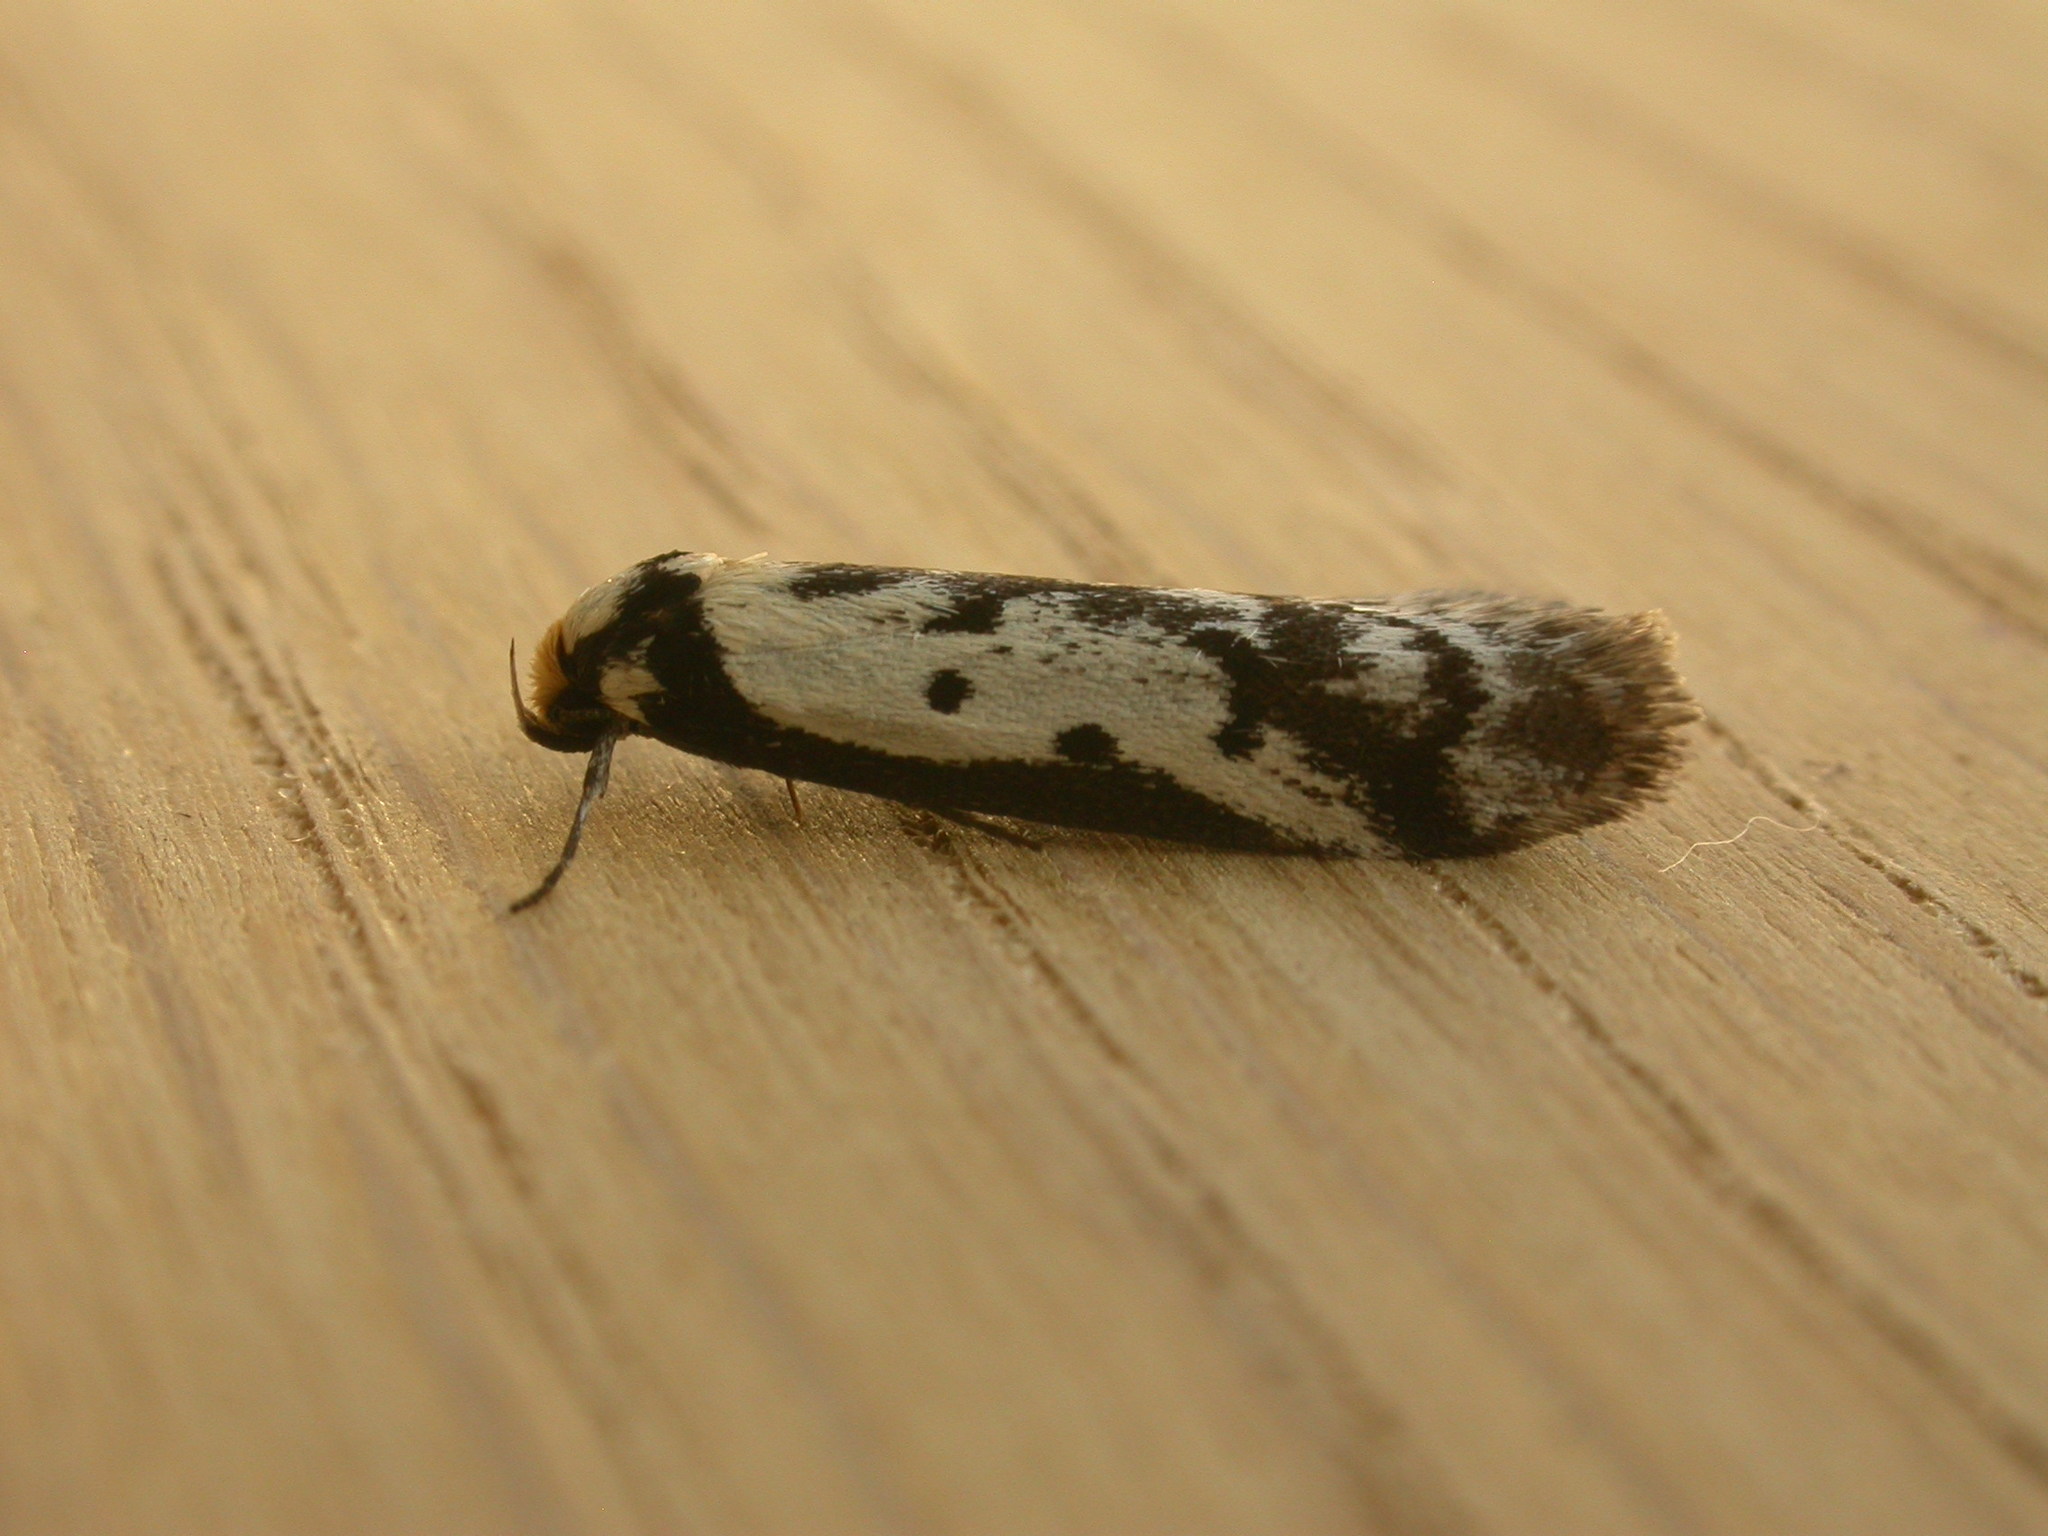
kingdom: Animalia
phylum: Arthropoda
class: Insecta
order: Lepidoptera
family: Oecophoridae
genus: Philobota
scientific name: Philobota lysizona
